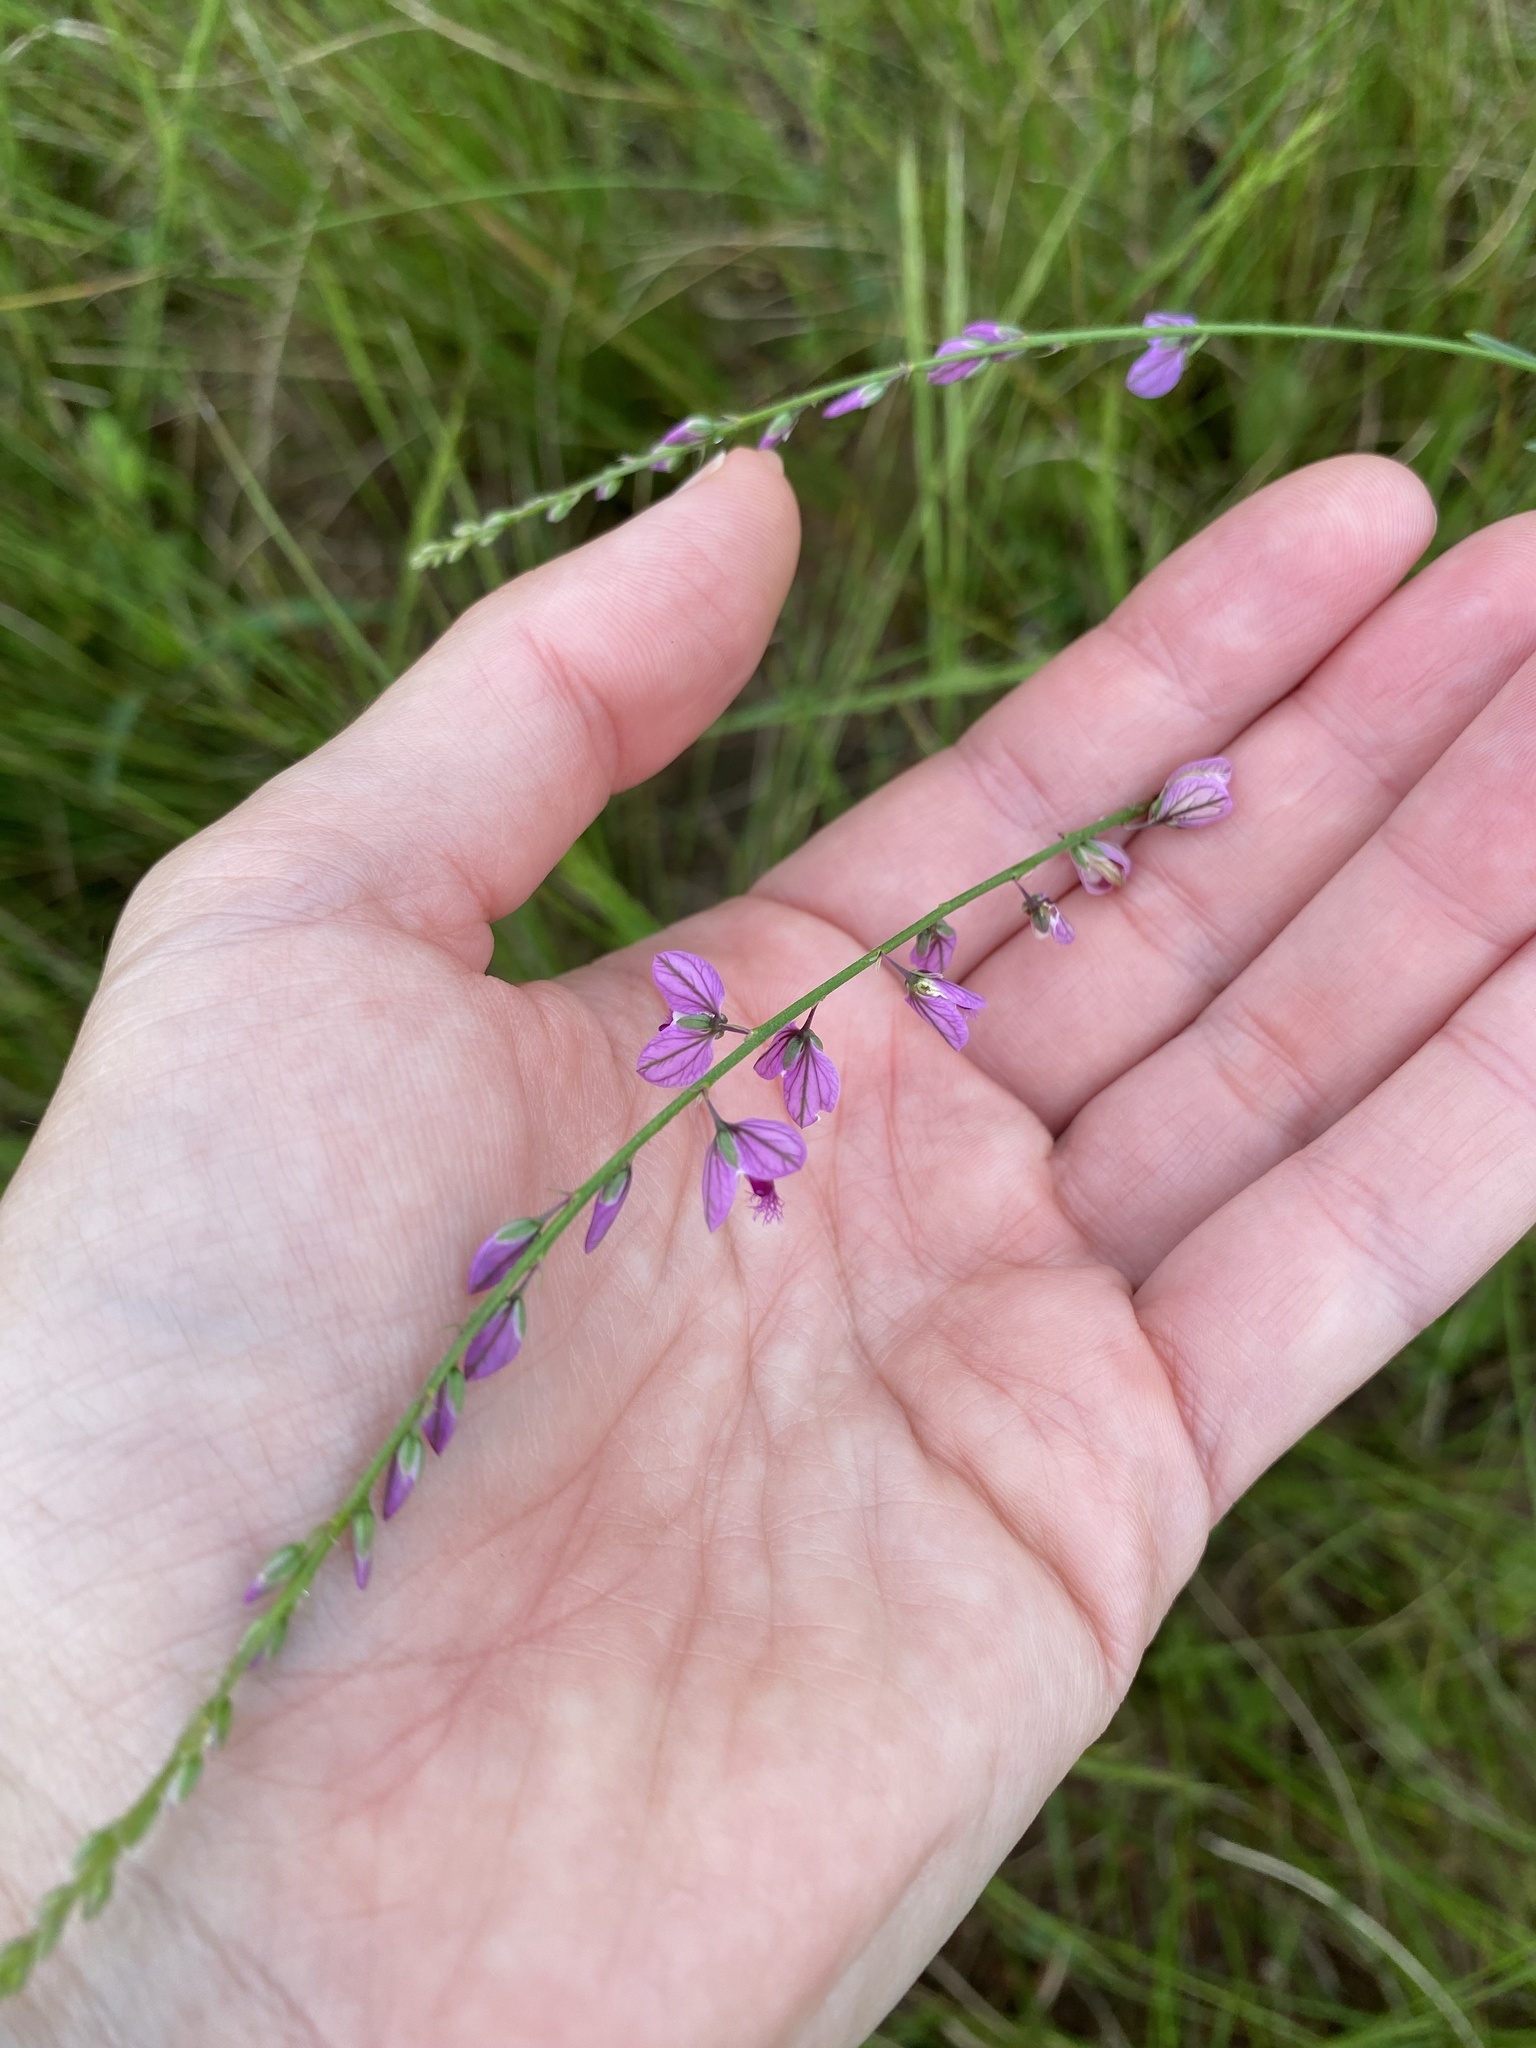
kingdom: Plantae
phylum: Tracheophyta
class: Magnoliopsida
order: Fabales
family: Polygalaceae
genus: Polygala
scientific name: Polygala hottentotta
